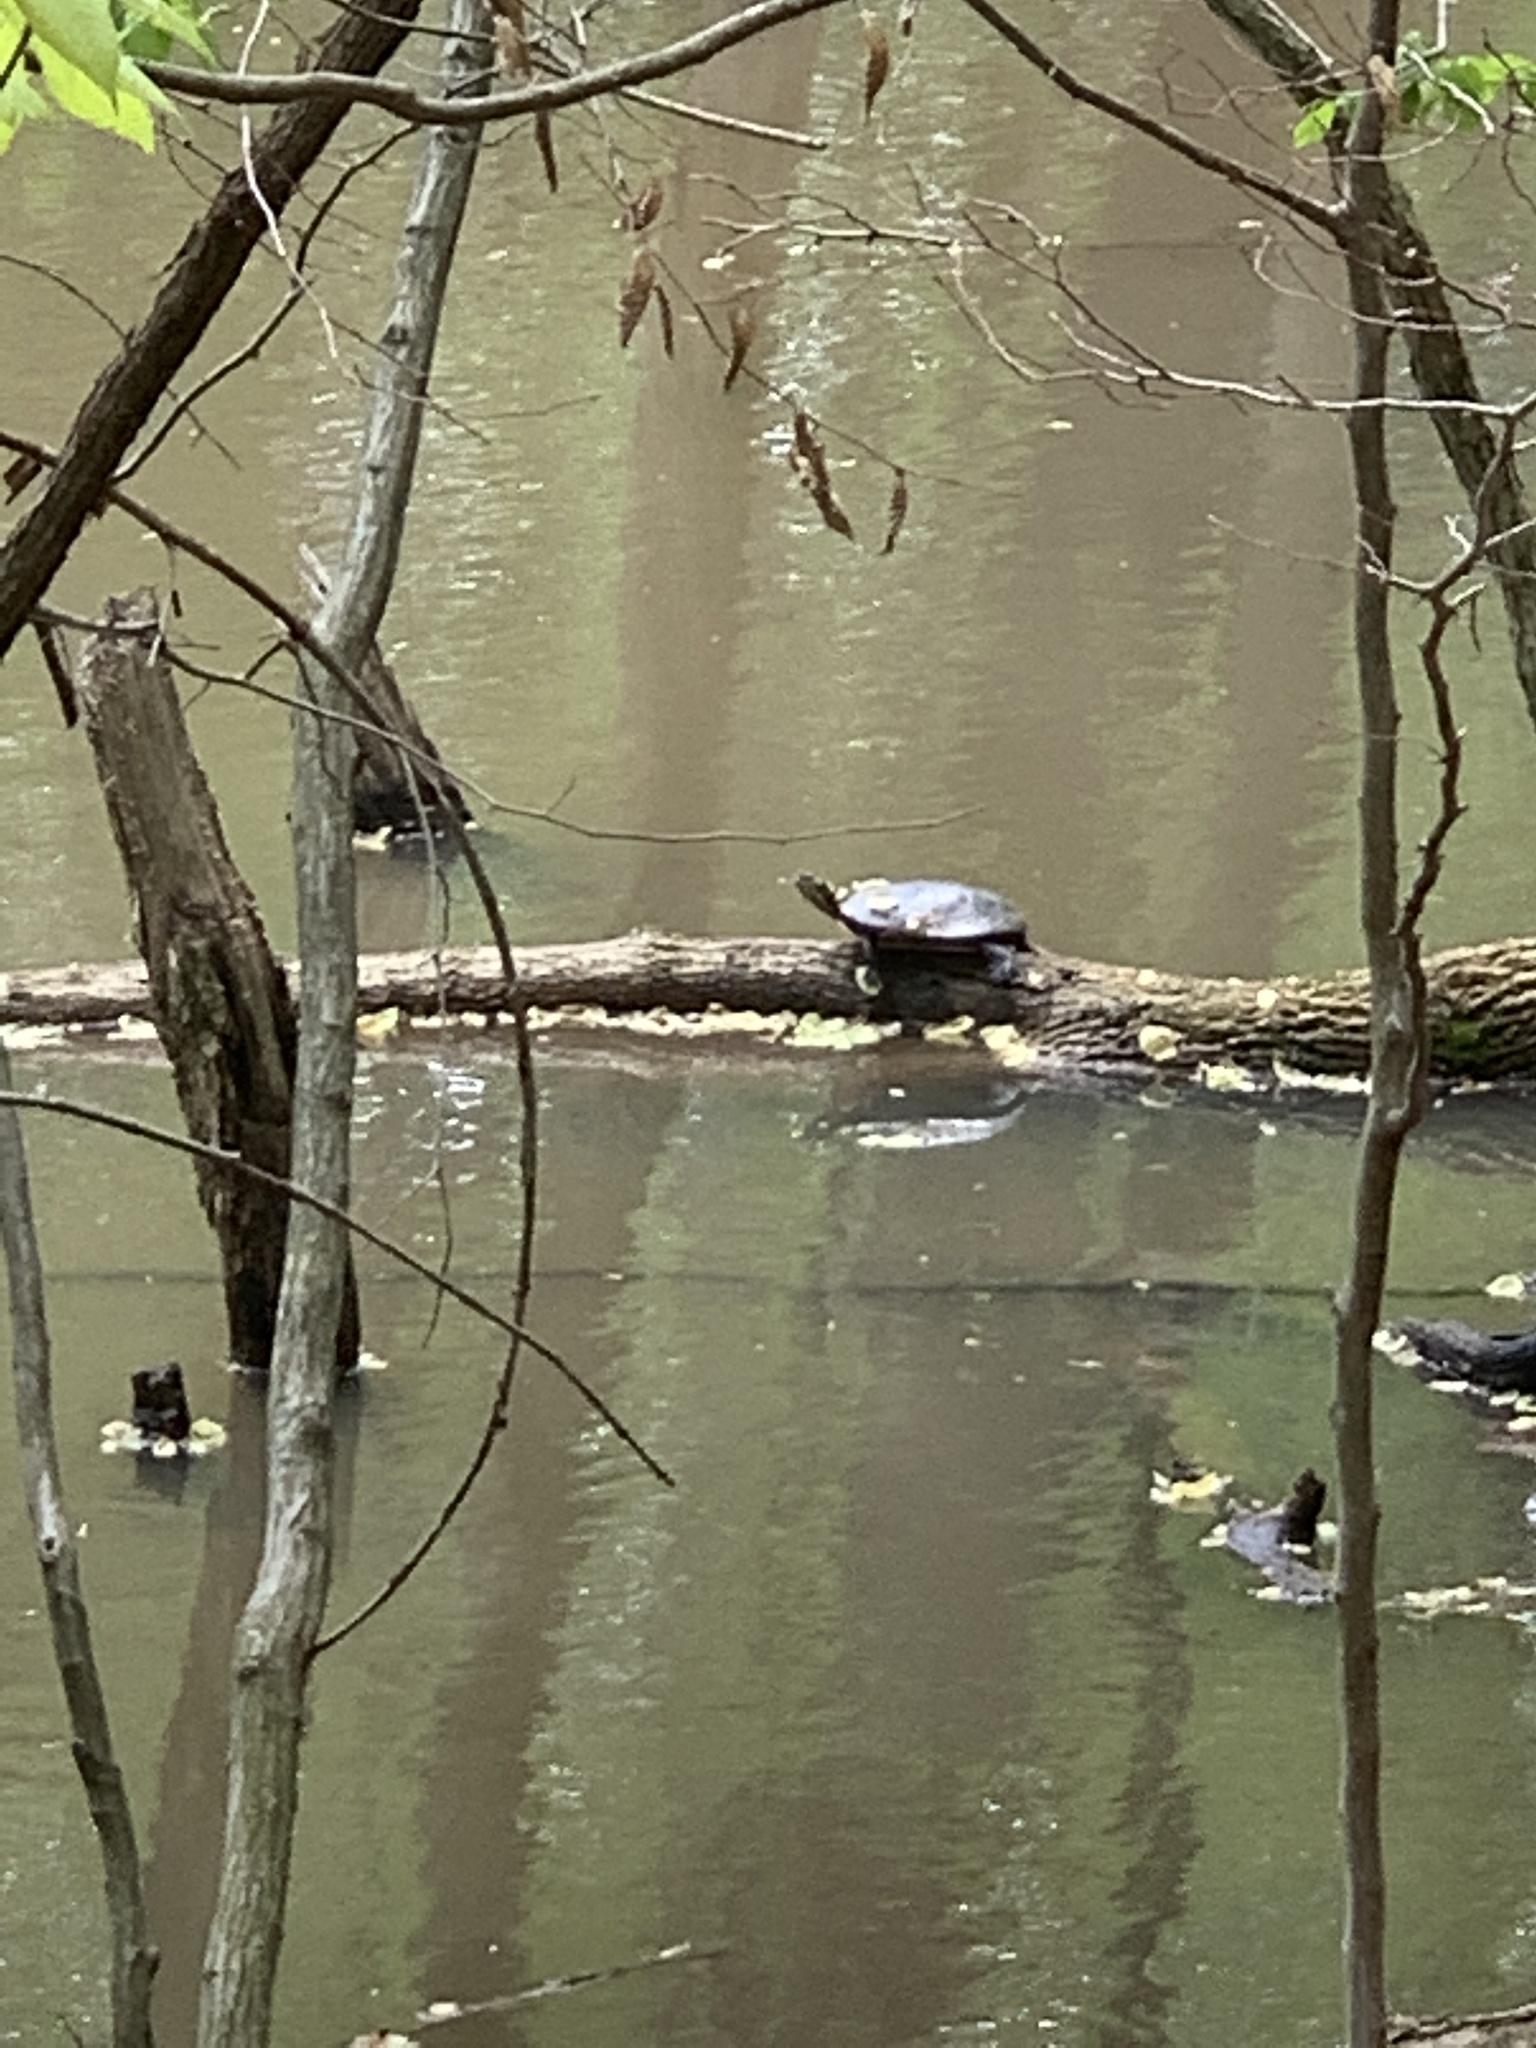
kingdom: Animalia
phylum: Chordata
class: Testudines
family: Emydidae
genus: Chrysemys
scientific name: Chrysemys picta
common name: Painted turtle
